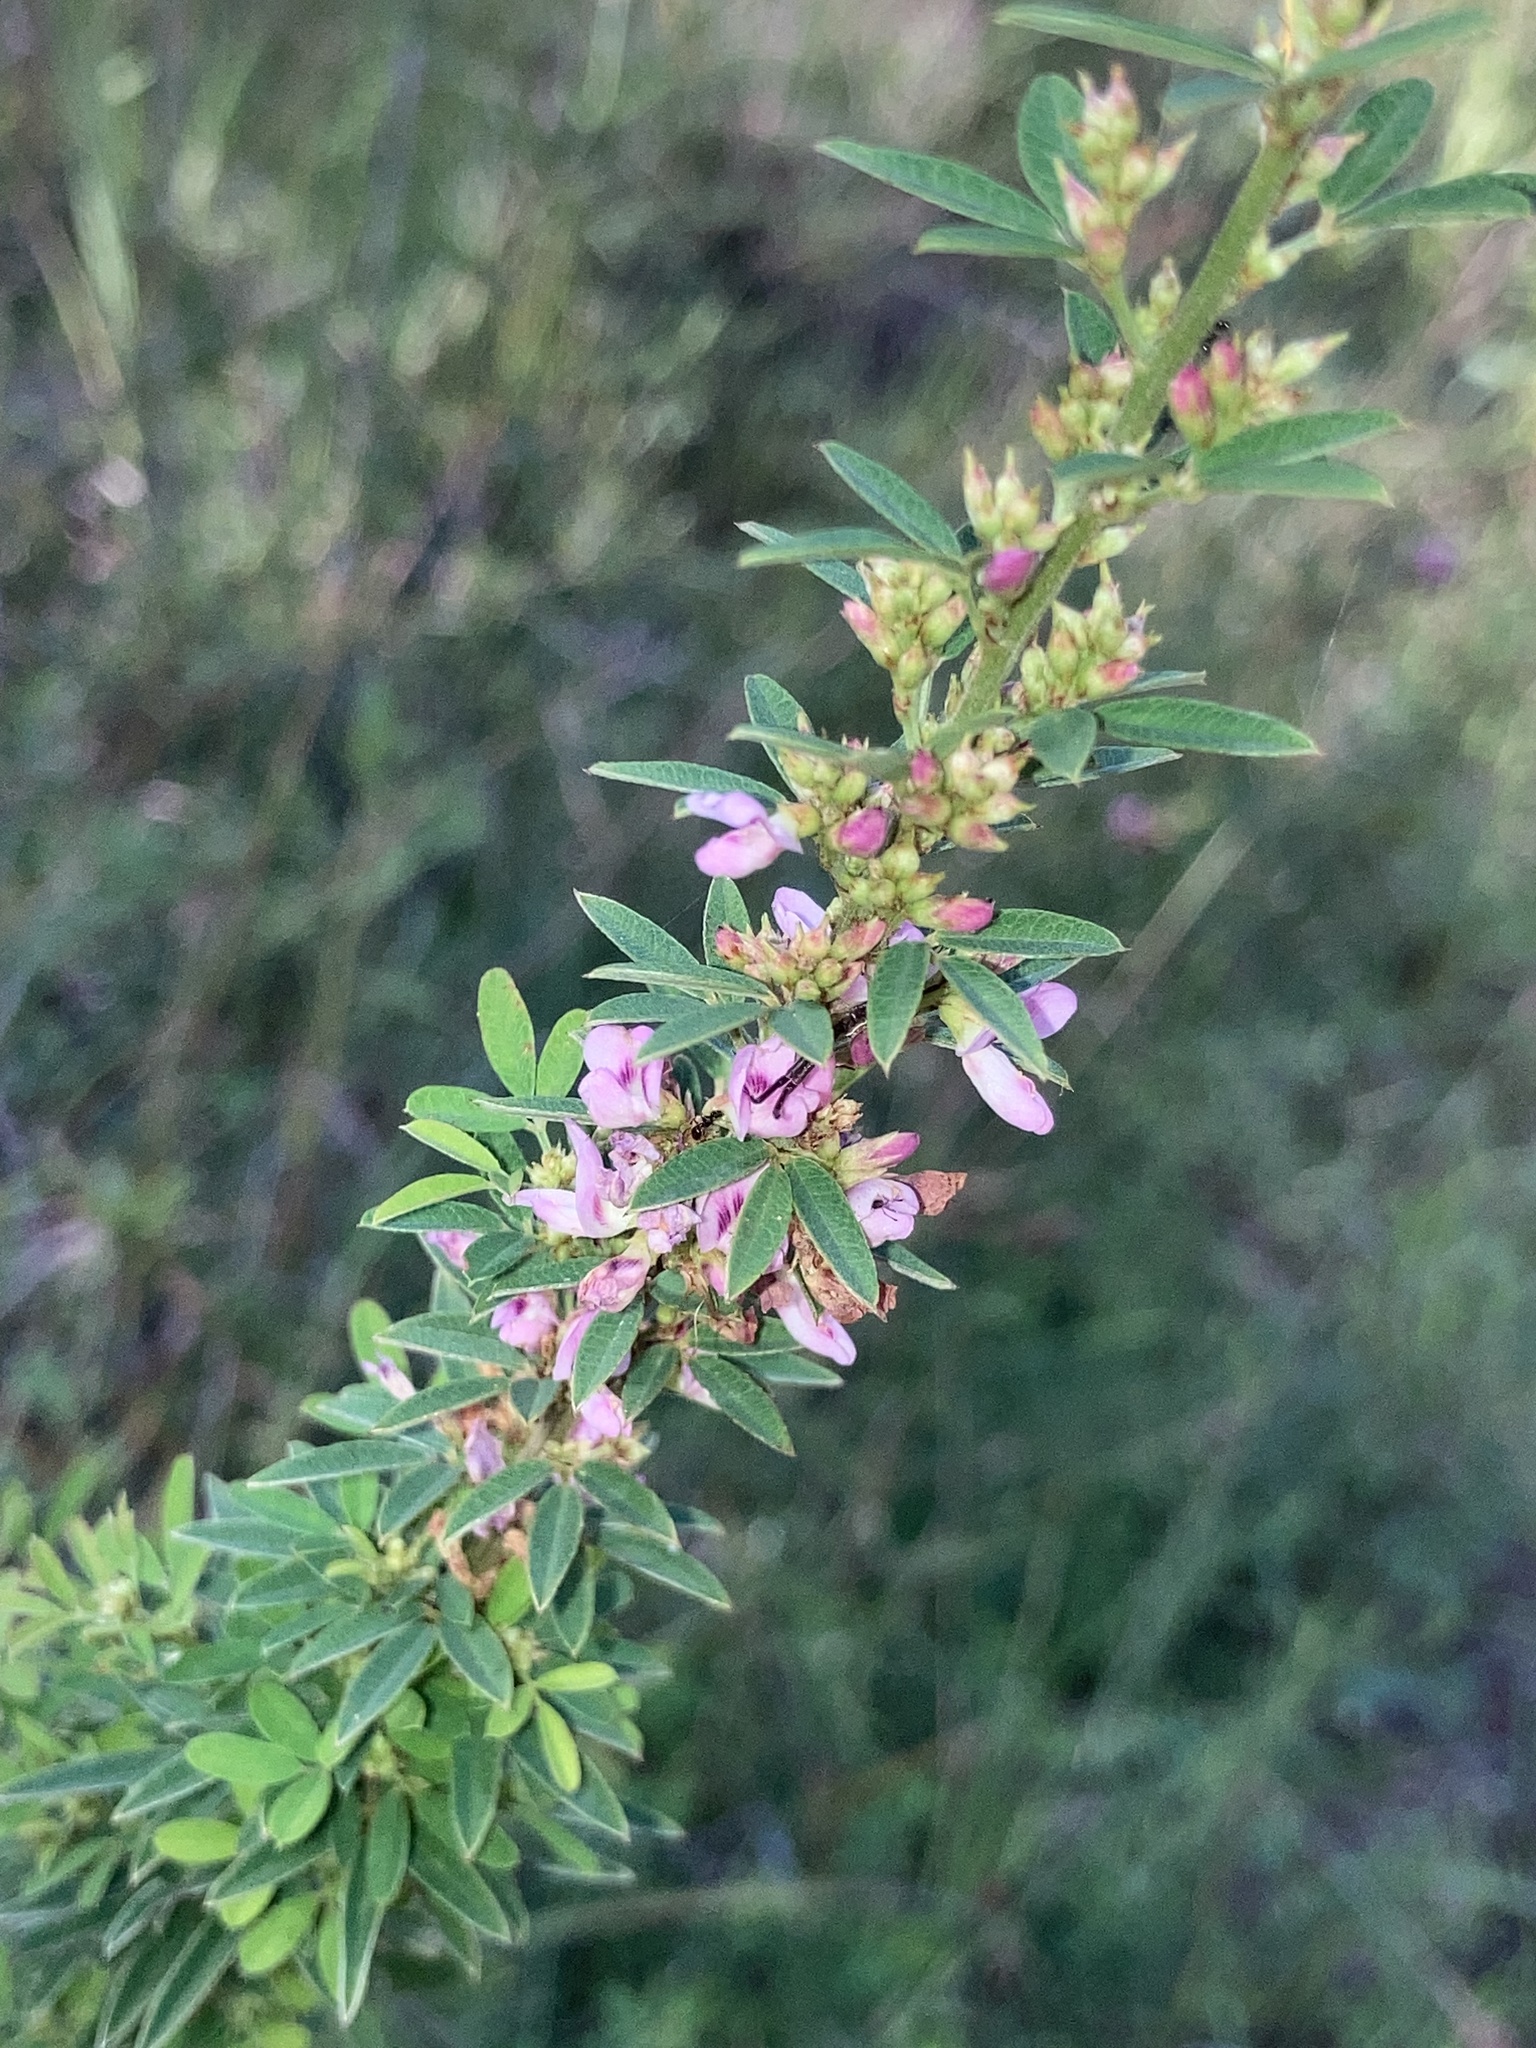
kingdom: Plantae
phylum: Tracheophyta
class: Magnoliopsida
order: Fabales
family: Fabaceae
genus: Lespedeza
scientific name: Lespedeza virginica
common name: Slender bush-clover
